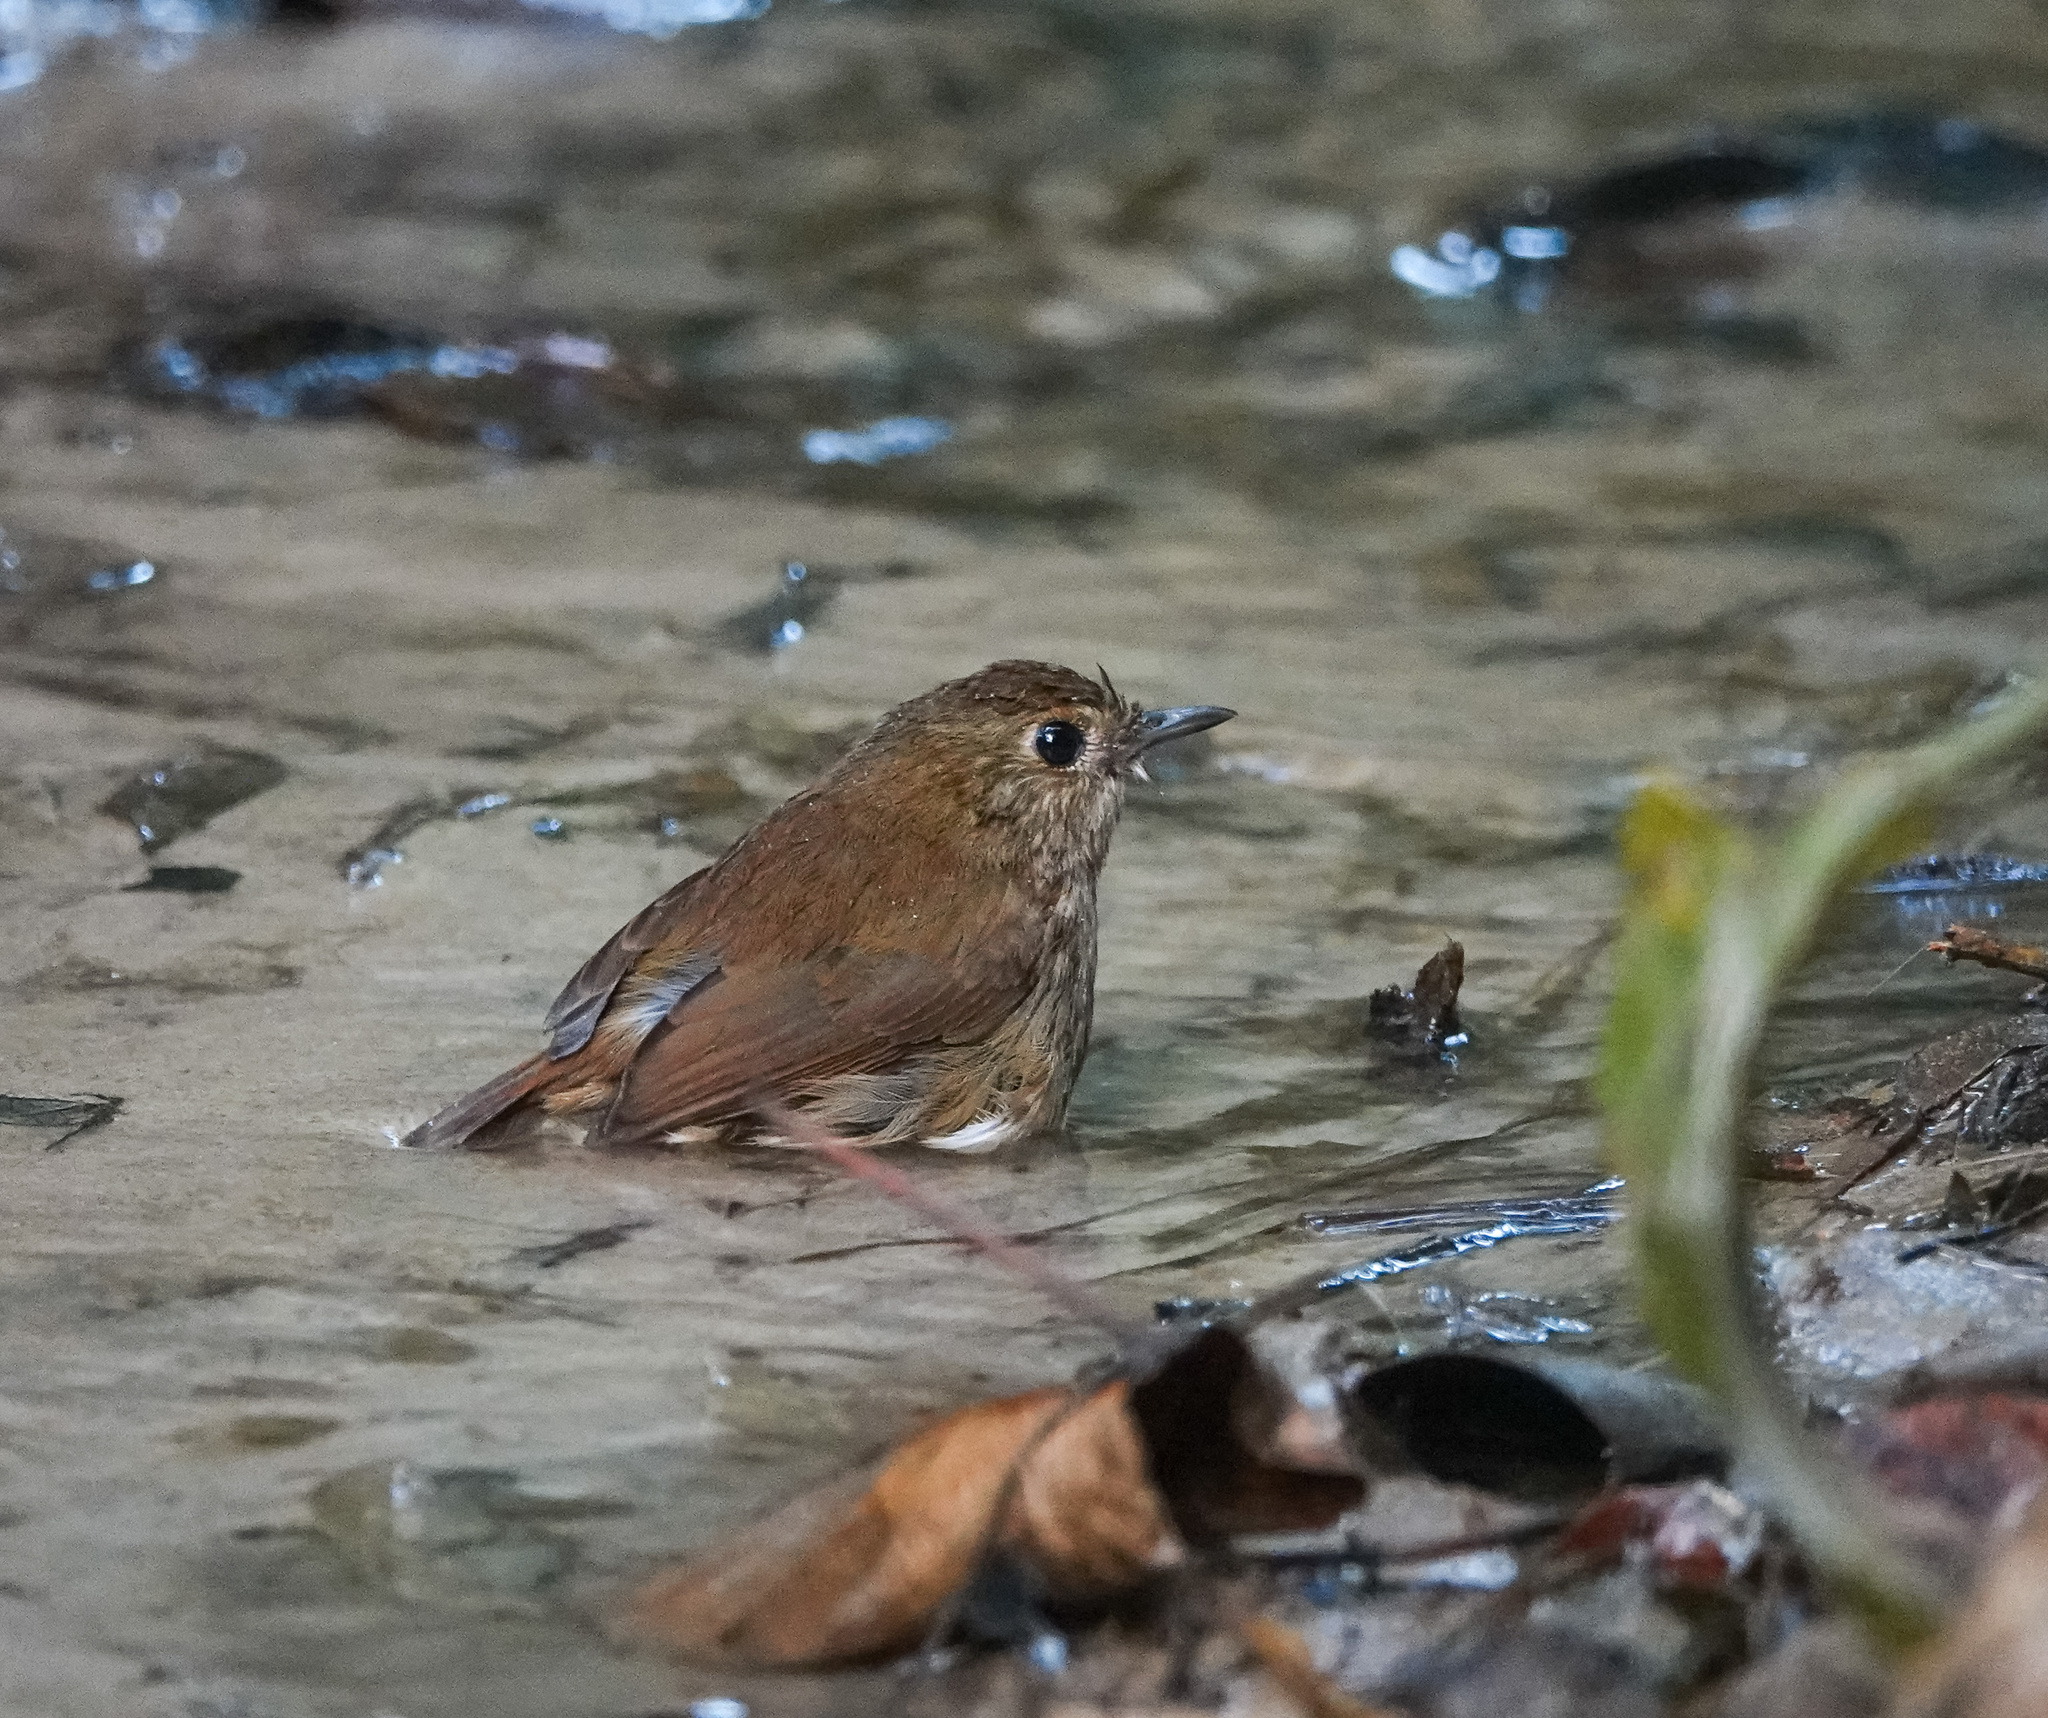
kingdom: Animalia
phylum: Chordata
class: Aves
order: Passeriformes
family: Muscicapidae
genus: Brachypteryx
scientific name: Brachypteryx leucophris
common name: Lesser shortwing
